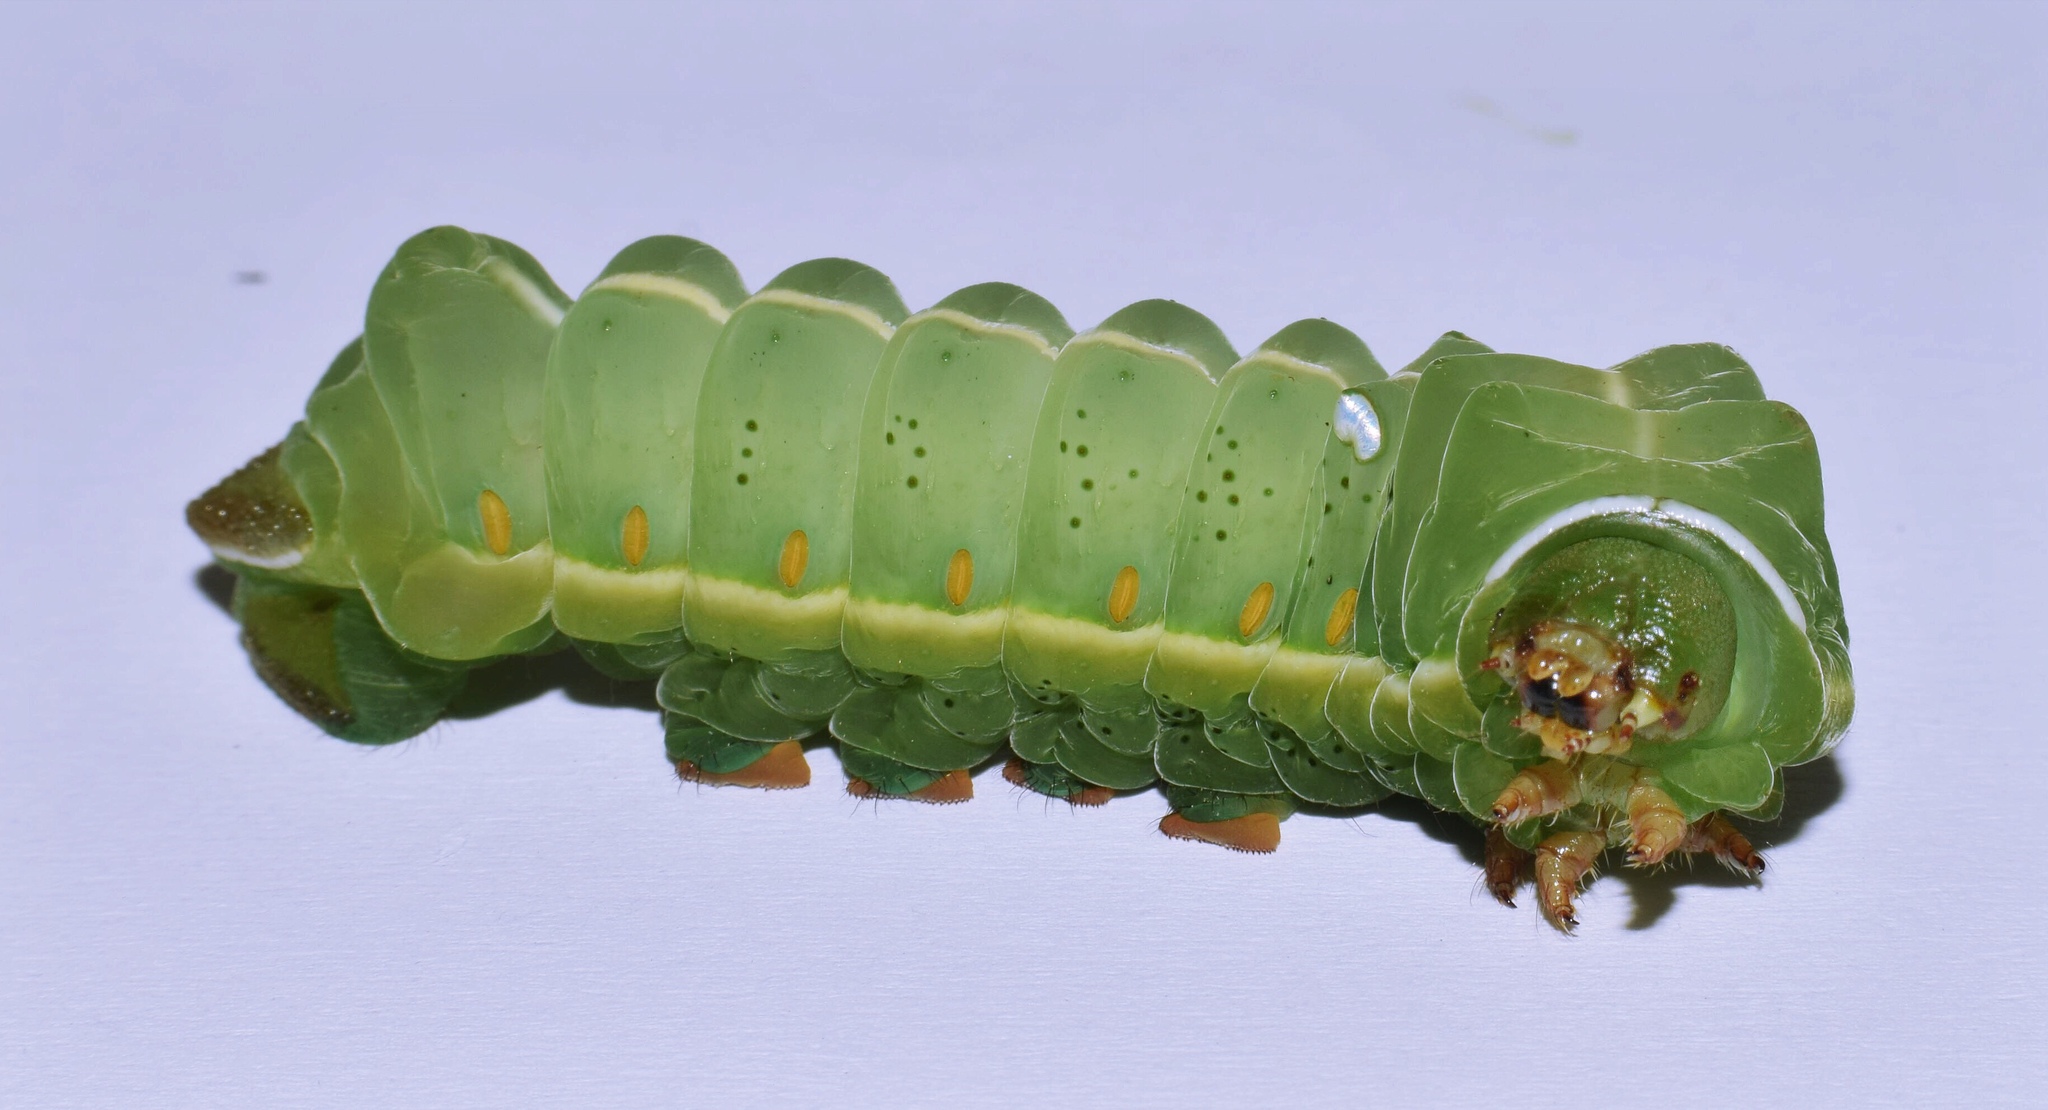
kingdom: Animalia
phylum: Arthropoda
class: Insecta
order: Lepidoptera
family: Saturniidae
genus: Pseudobunaea
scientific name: Pseudobunaea tyrrhena
